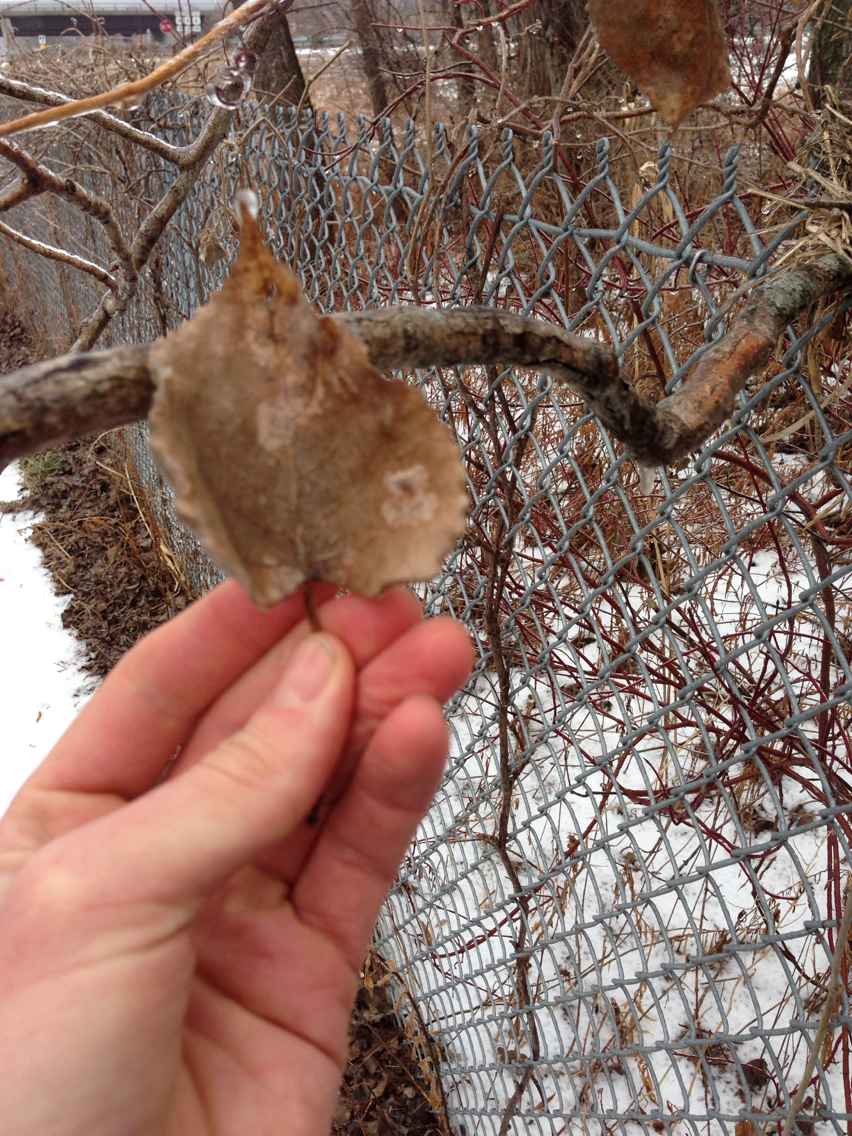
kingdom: Plantae
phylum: Tracheophyta
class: Magnoliopsida
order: Malpighiales
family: Salicaceae
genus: Populus
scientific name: Populus deltoides
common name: Eastern cottonwood
